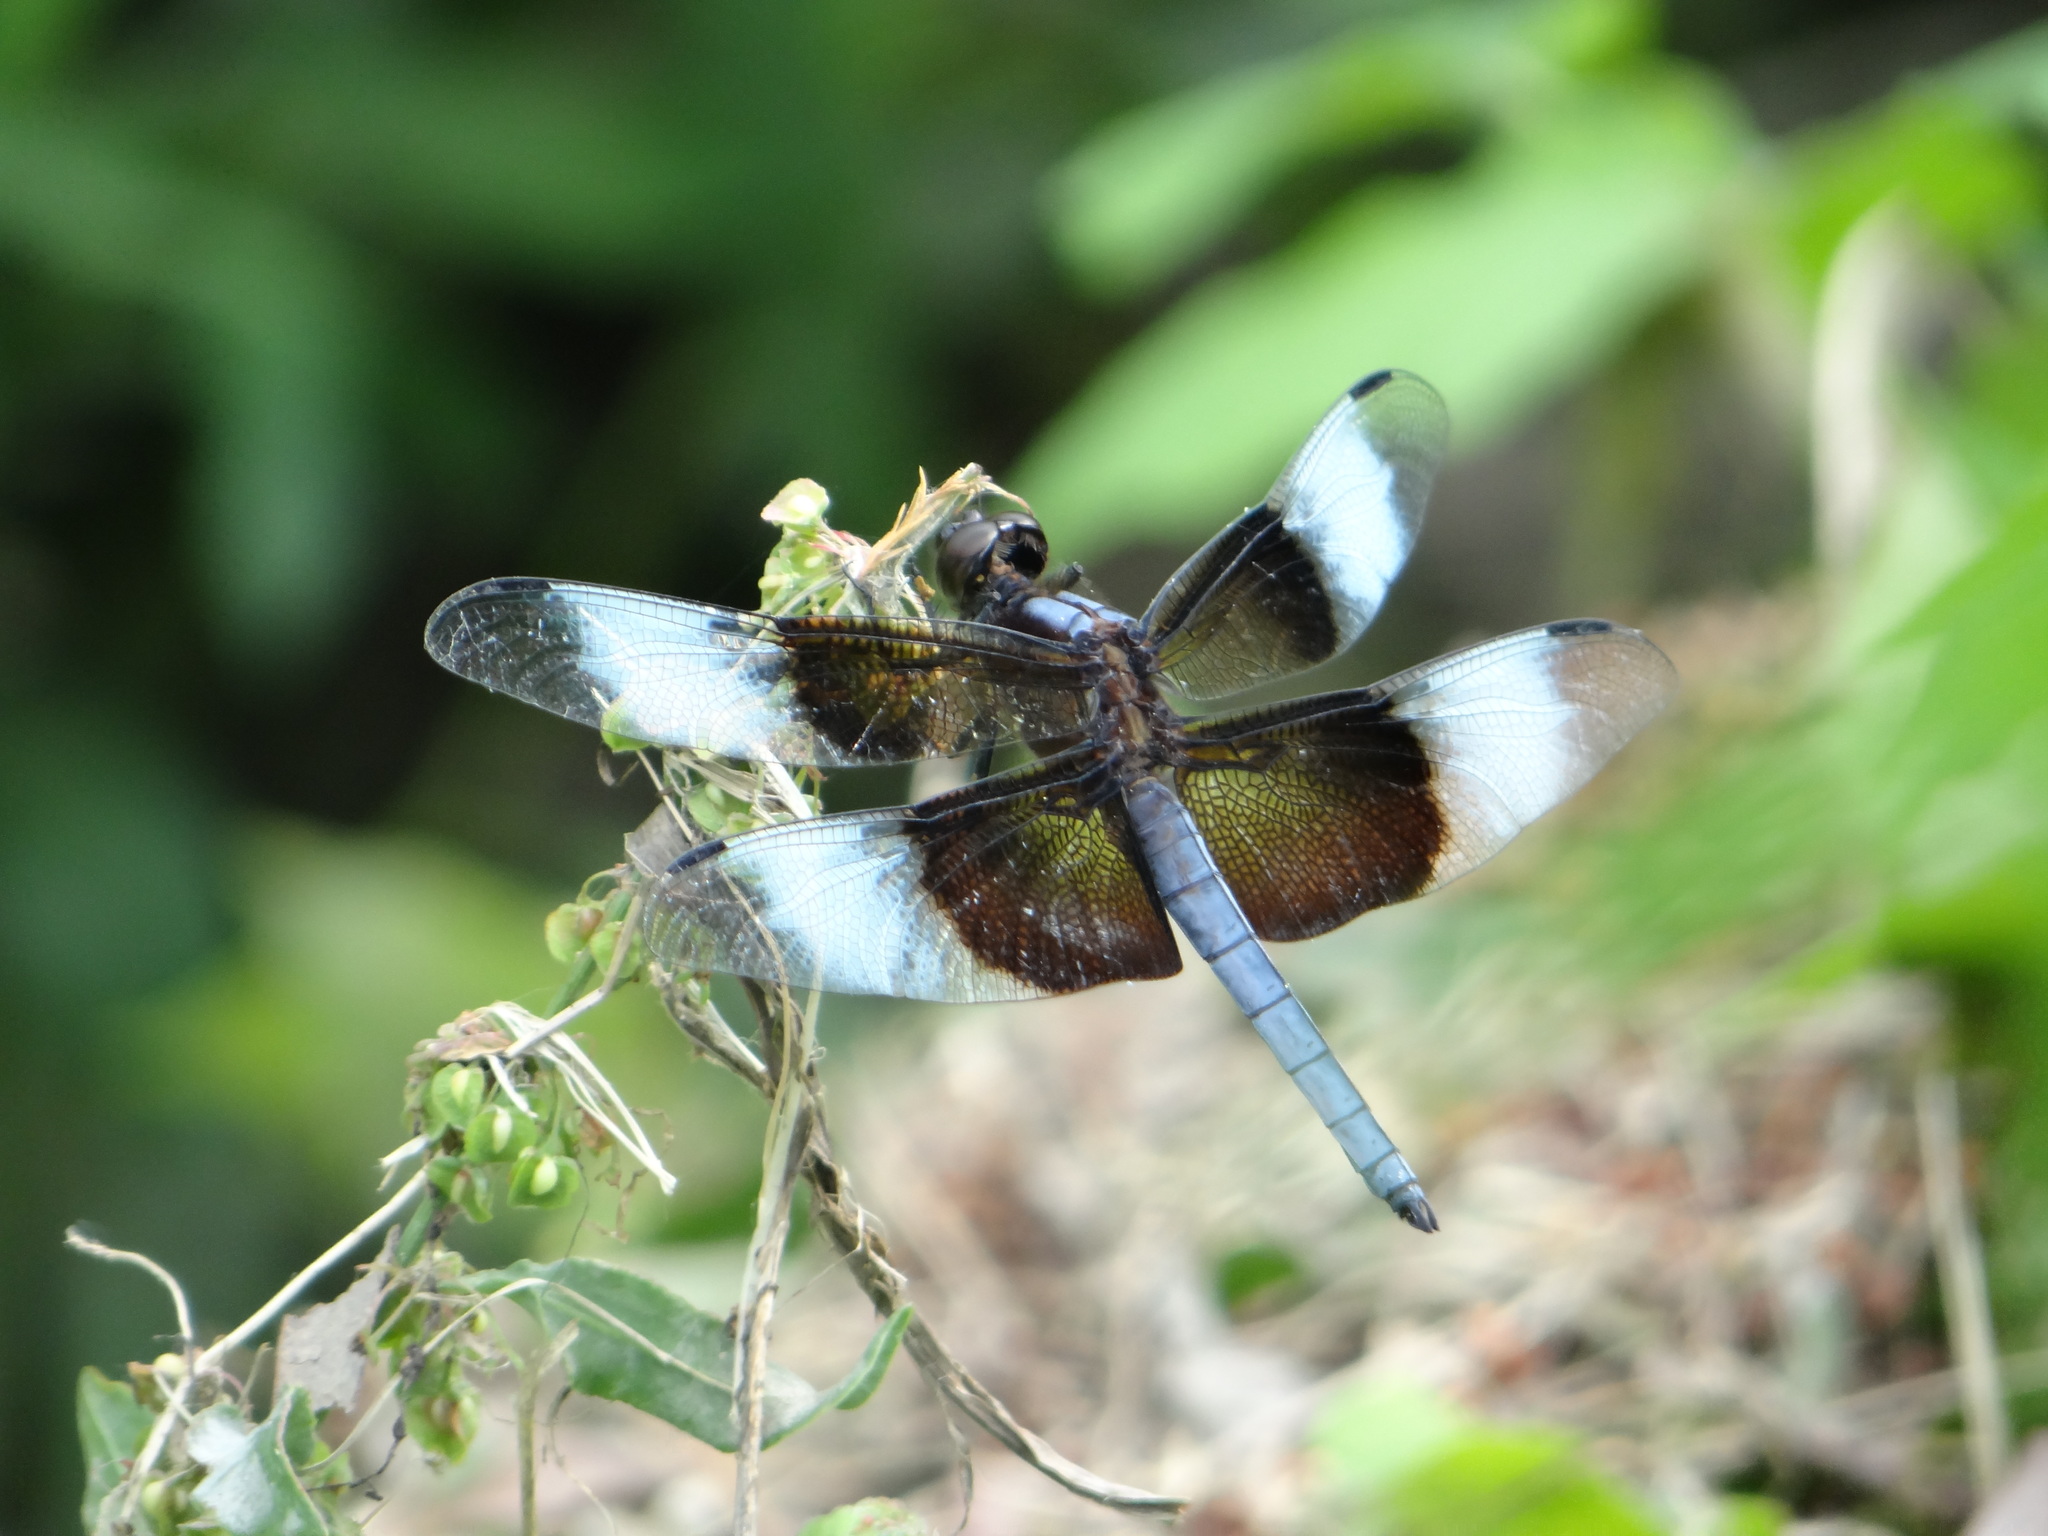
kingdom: Animalia
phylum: Arthropoda
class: Insecta
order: Odonata
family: Libellulidae
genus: Libellula
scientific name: Libellula luctuosa
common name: Widow skimmer
